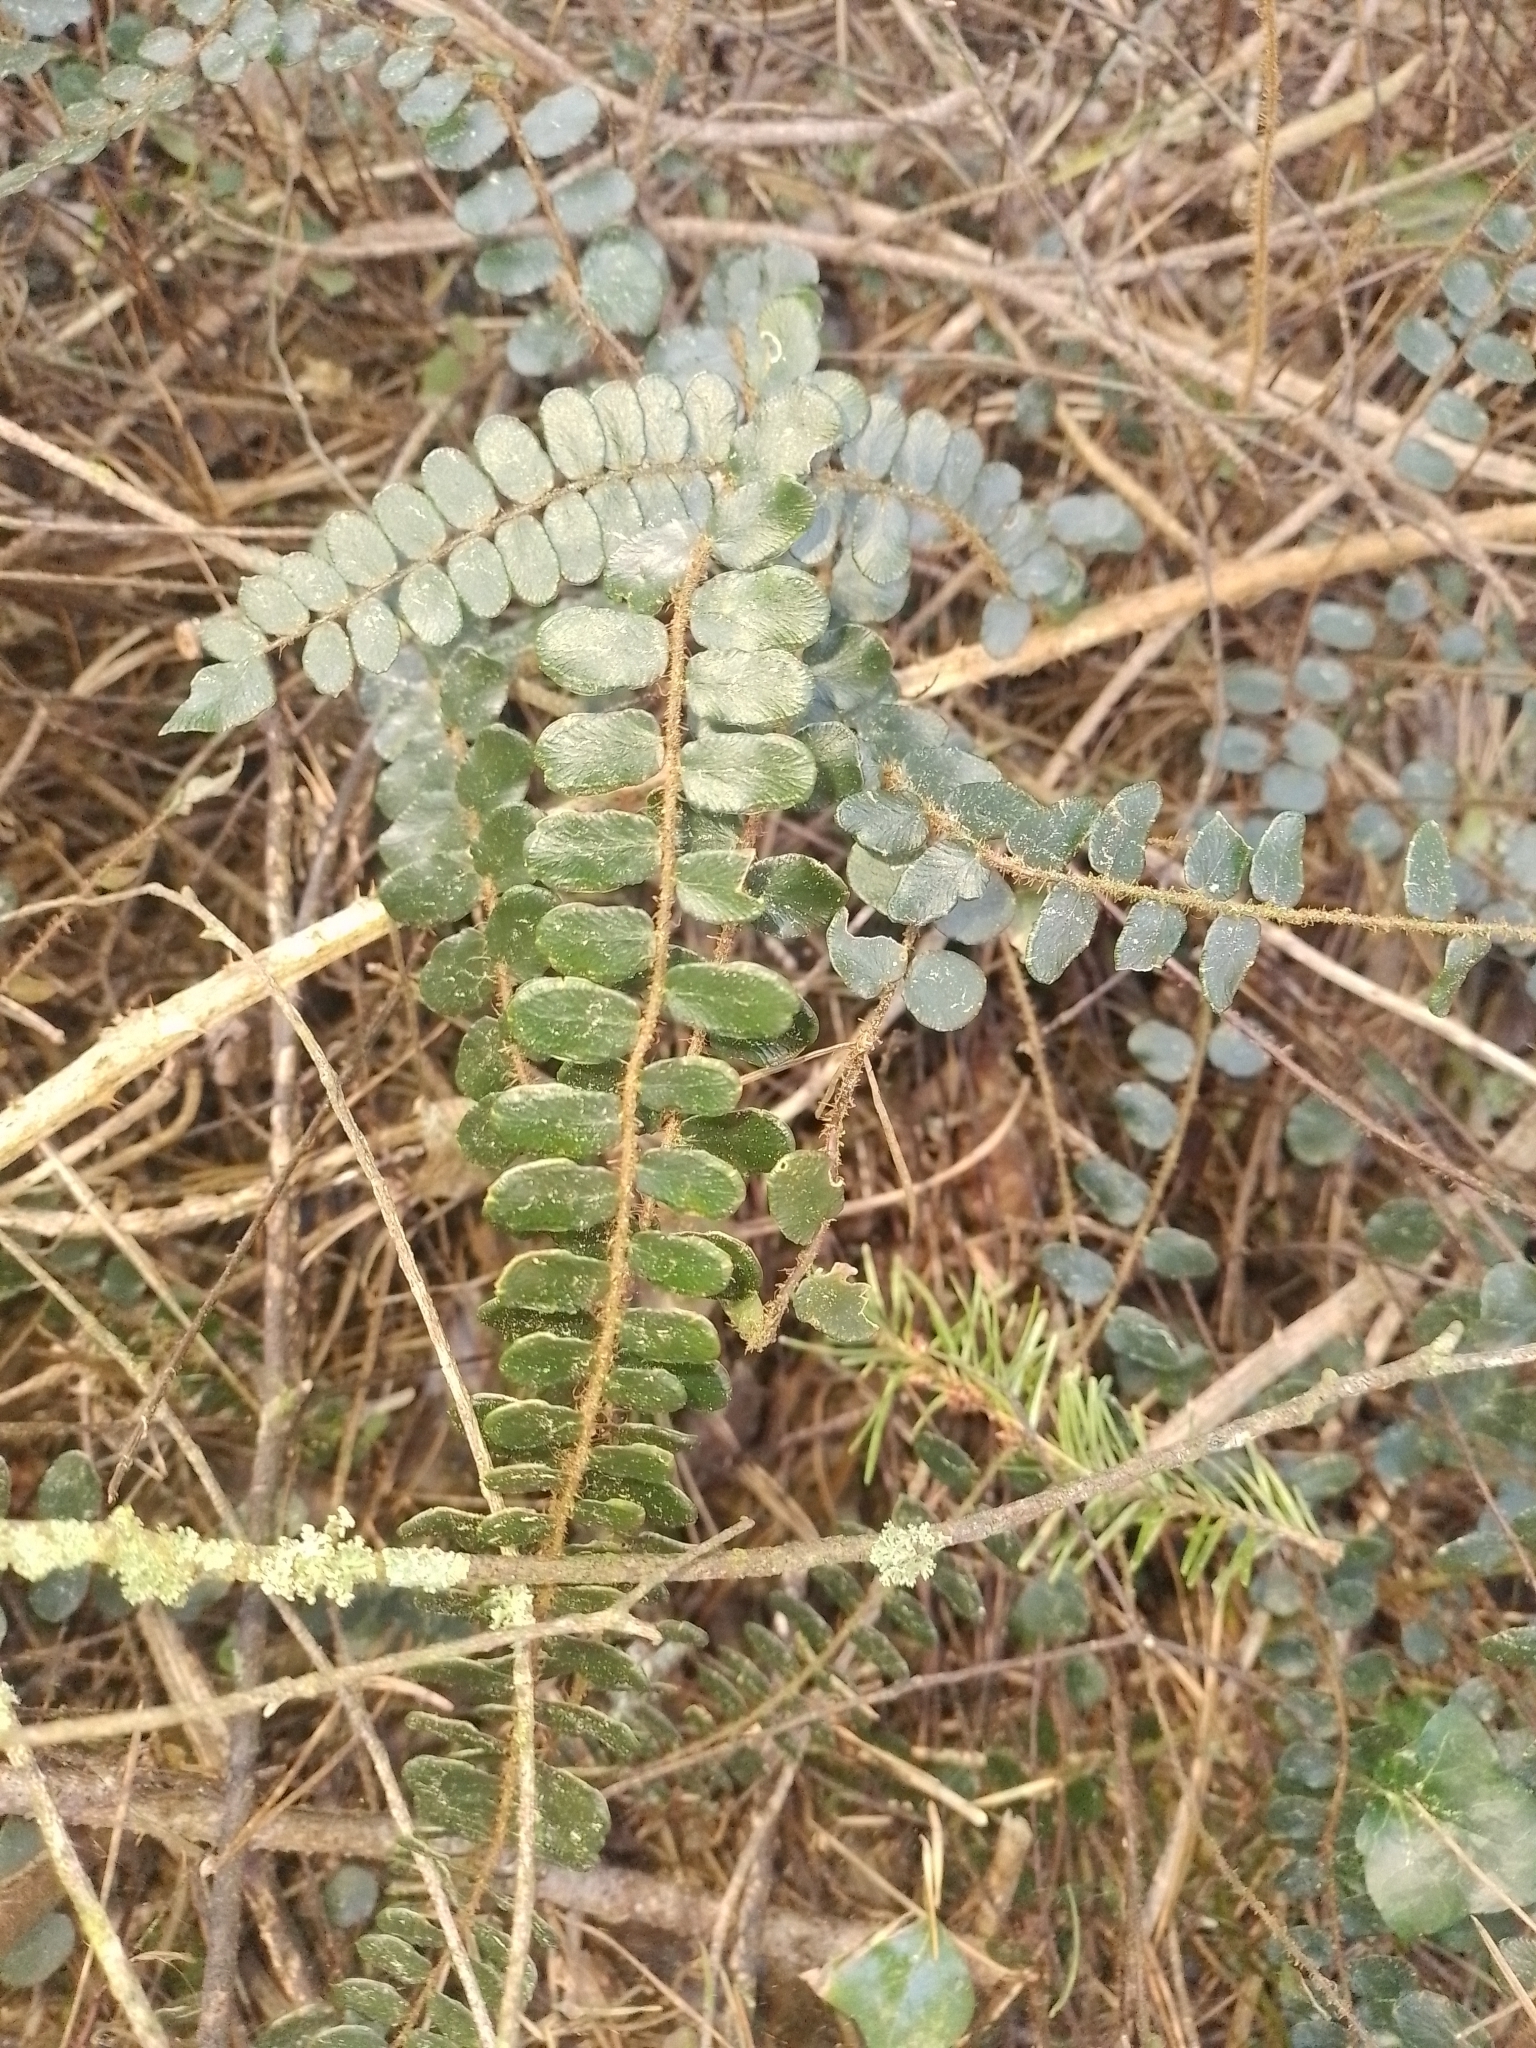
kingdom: Plantae
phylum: Tracheophyta
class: Polypodiopsida
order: Polypodiales
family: Pteridaceae
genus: Pellaea
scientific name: Pellaea rotundifolia
